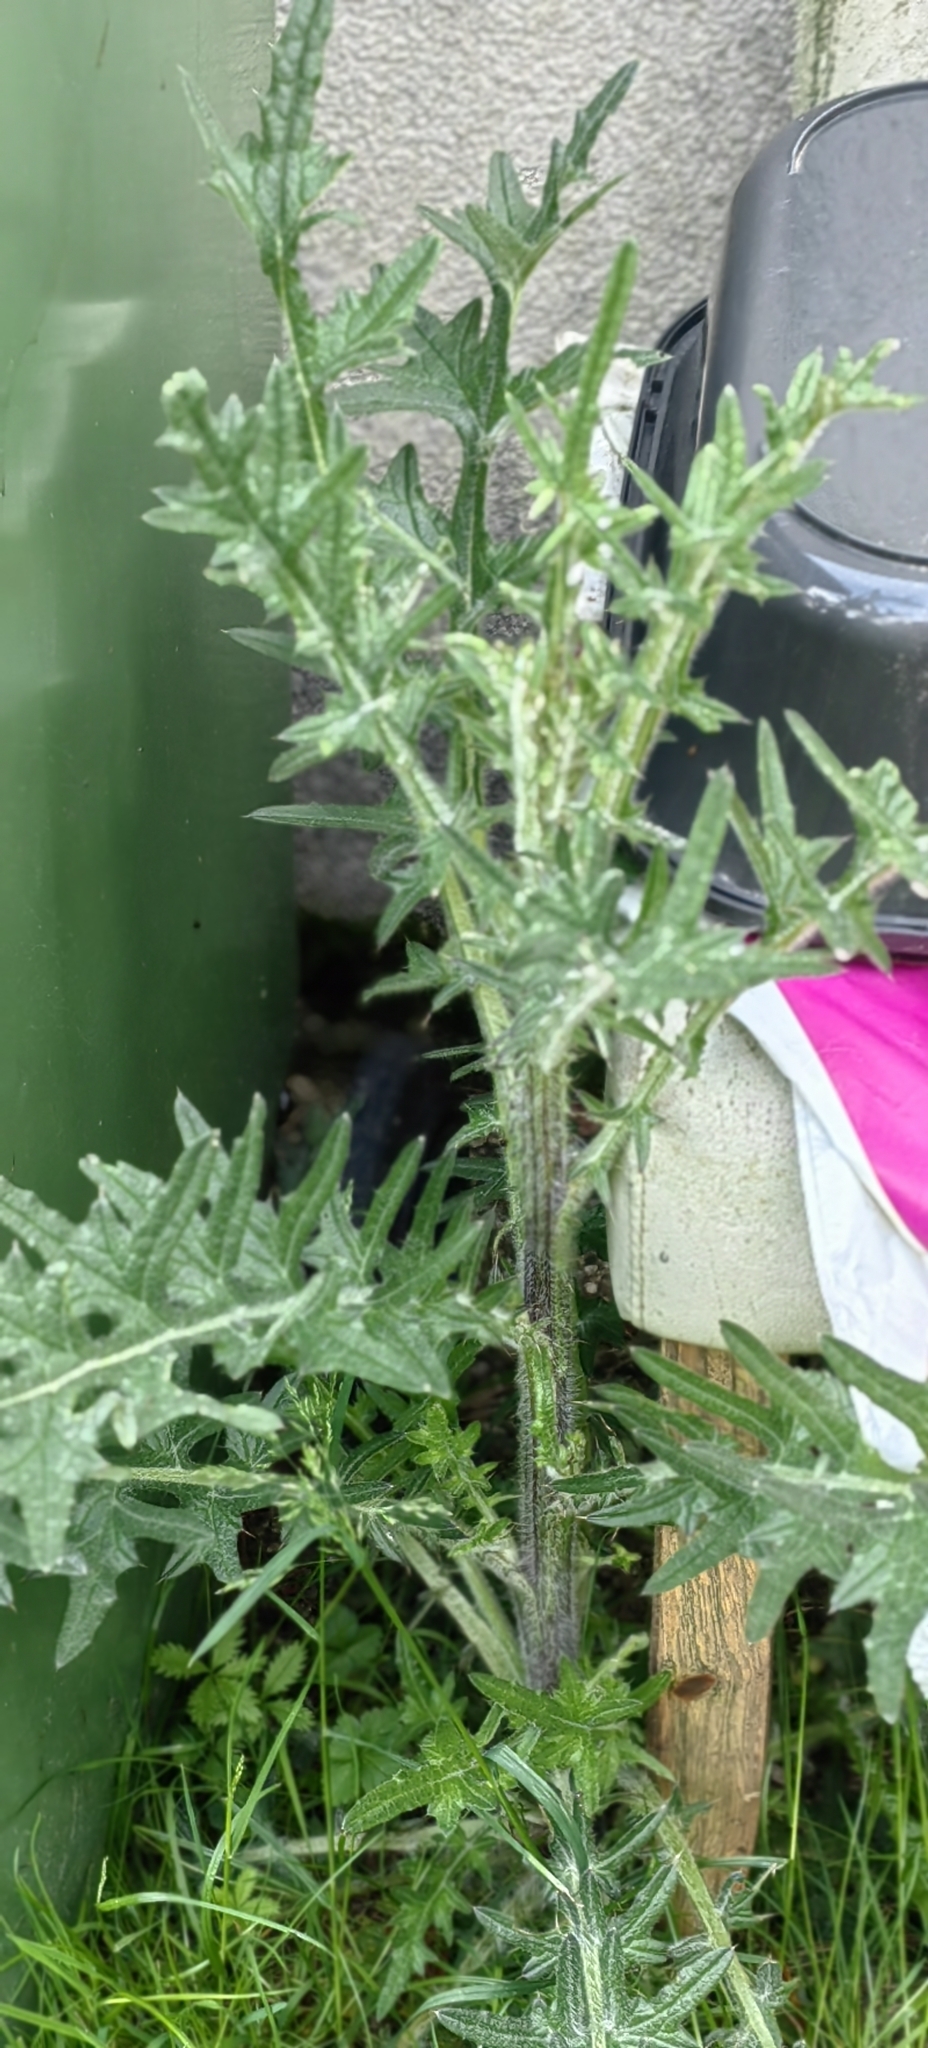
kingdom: Plantae
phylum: Tracheophyta
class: Magnoliopsida
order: Asterales
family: Asteraceae
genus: Cirsium
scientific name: Cirsium vulgare
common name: Bull thistle
